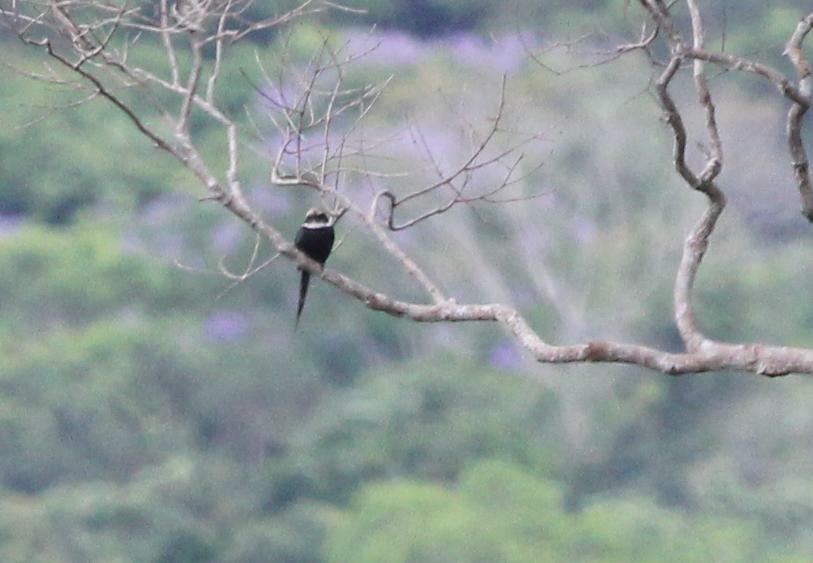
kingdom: Animalia
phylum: Chordata
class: Aves
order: Piciformes
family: Galbulidae
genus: Galbula
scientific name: Galbula dea
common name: Paradise jacamar
